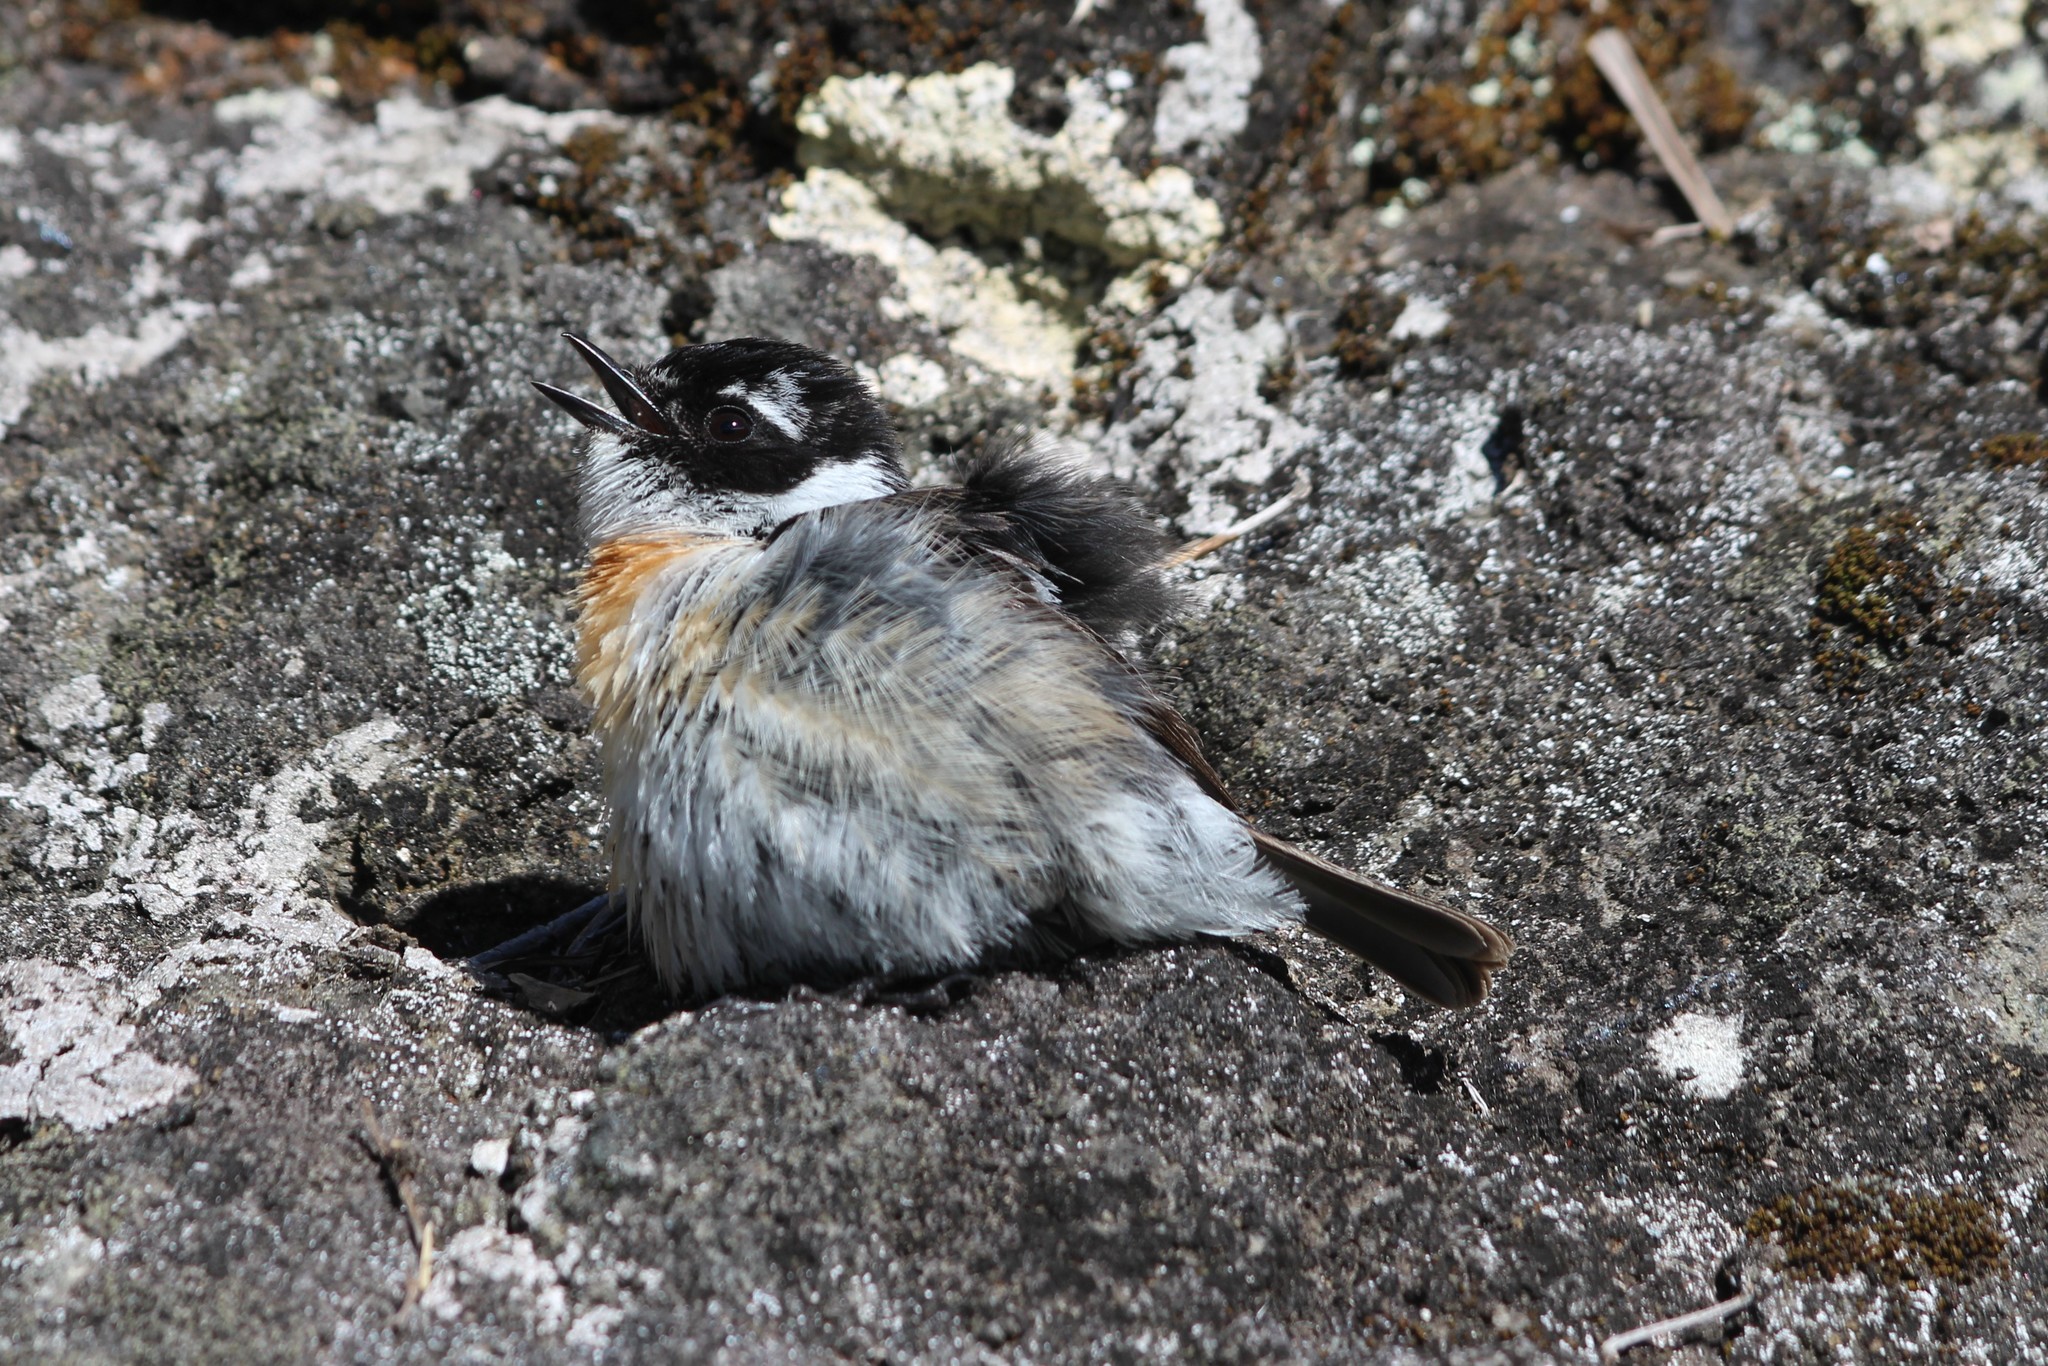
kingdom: Animalia
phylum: Chordata
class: Aves
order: Passeriformes
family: Muscicapidae
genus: Saxicola
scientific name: Saxicola tectes
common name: Reunion stonechat
